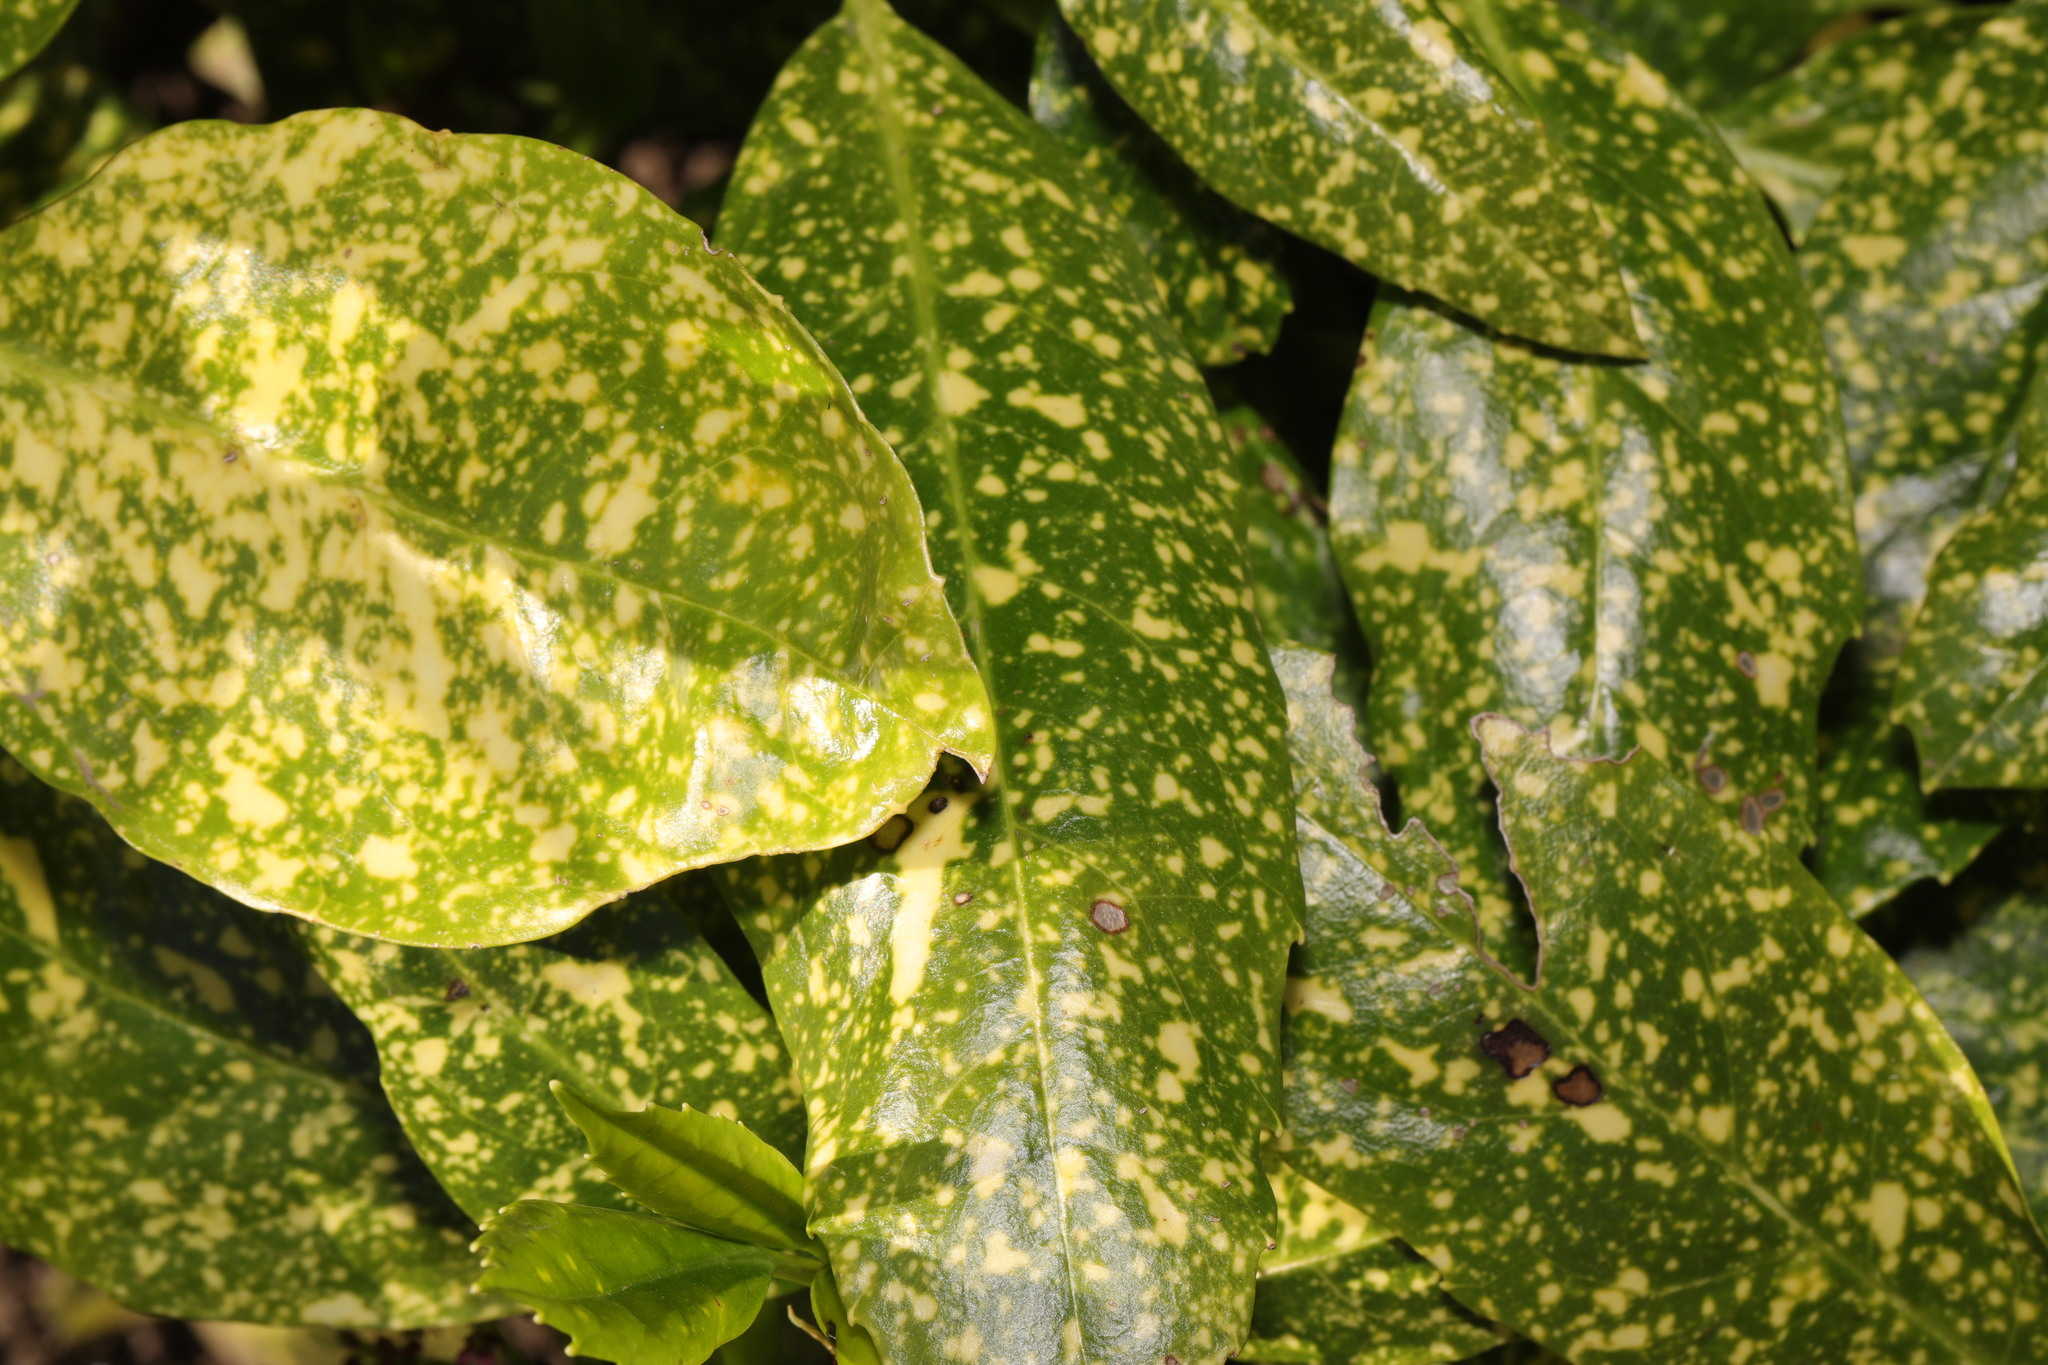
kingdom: Plantae
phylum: Tracheophyta
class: Magnoliopsida
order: Garryales
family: Garryaceae
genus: Aucuba
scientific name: Aucuba japonica
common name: Spotted-laurel
